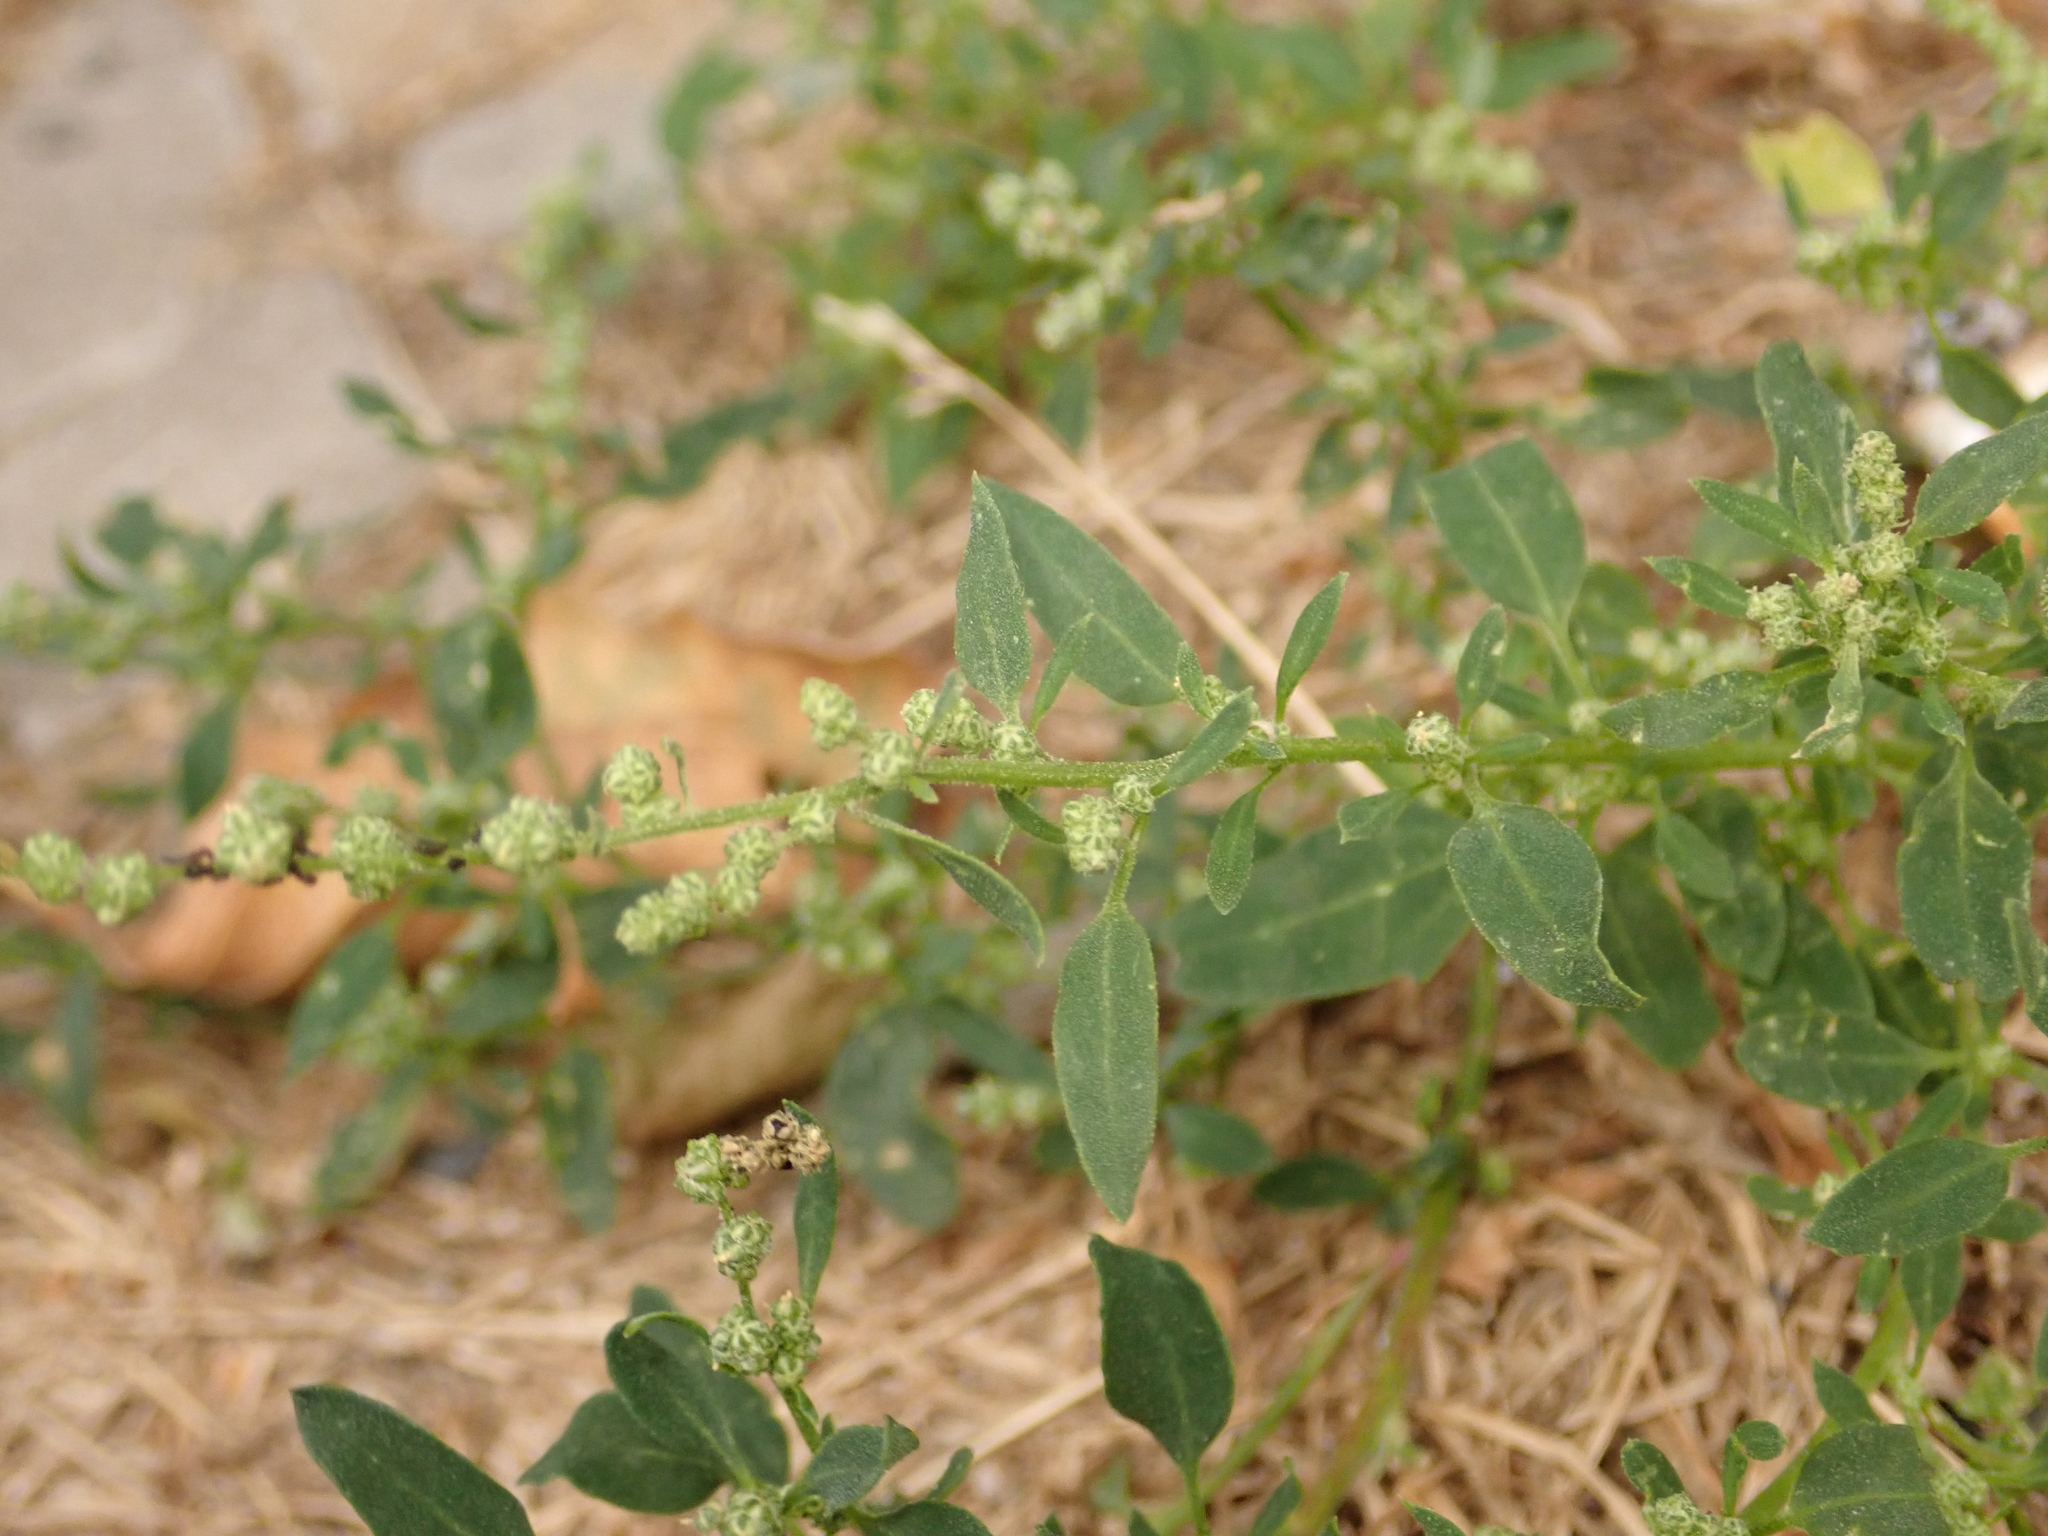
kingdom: Plantae
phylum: Tracheophyta
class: Magnoliopsida
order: Caryophyllales
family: Amaranthaceae
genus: Chenopodium
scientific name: Chenopodium album
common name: Fat-hen
